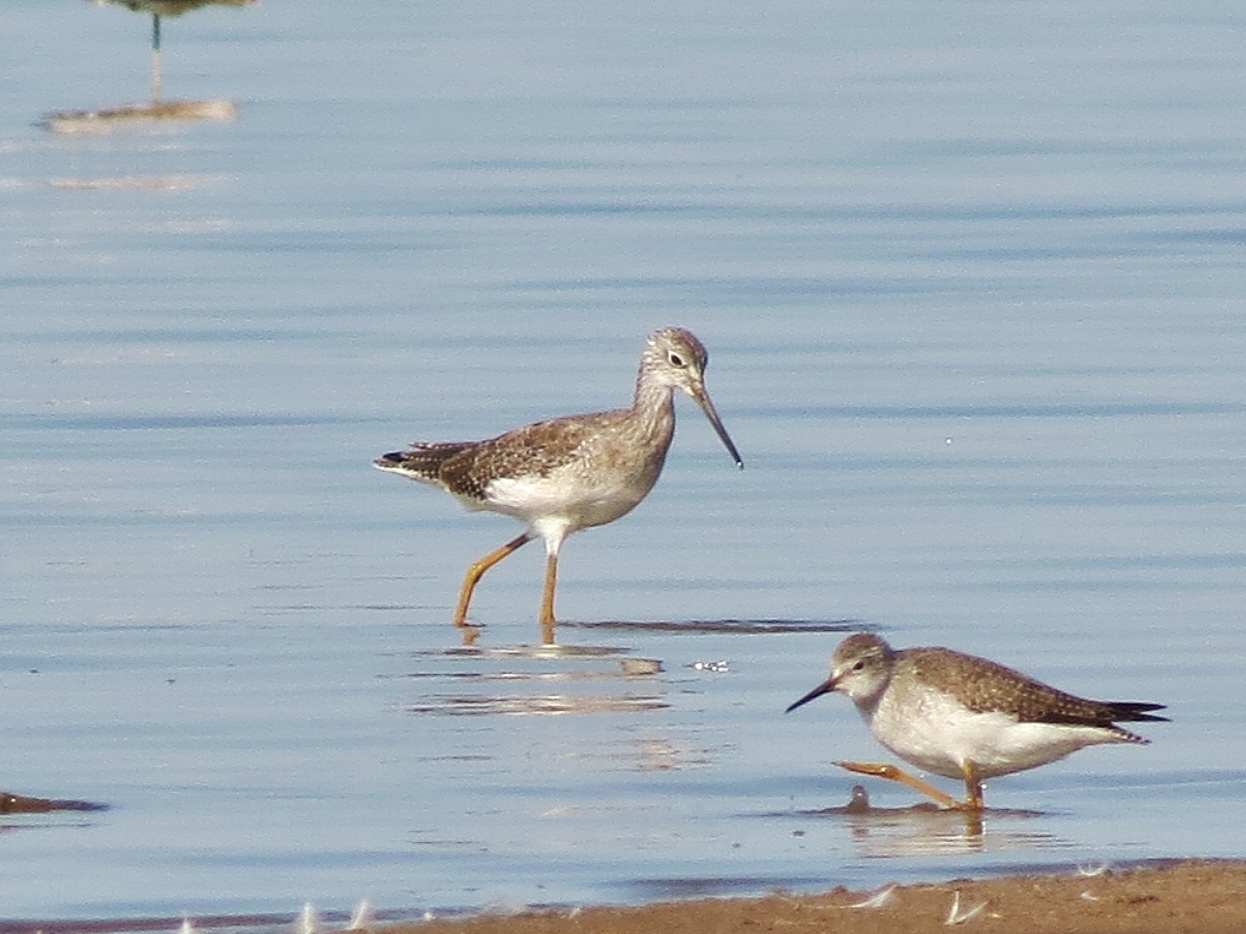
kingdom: Animalia
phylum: Chordata
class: Aves
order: Charadriiformes
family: Scolopacidae
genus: Tringa
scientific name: Tringa melanoleuca
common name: Greater yellowlegs
